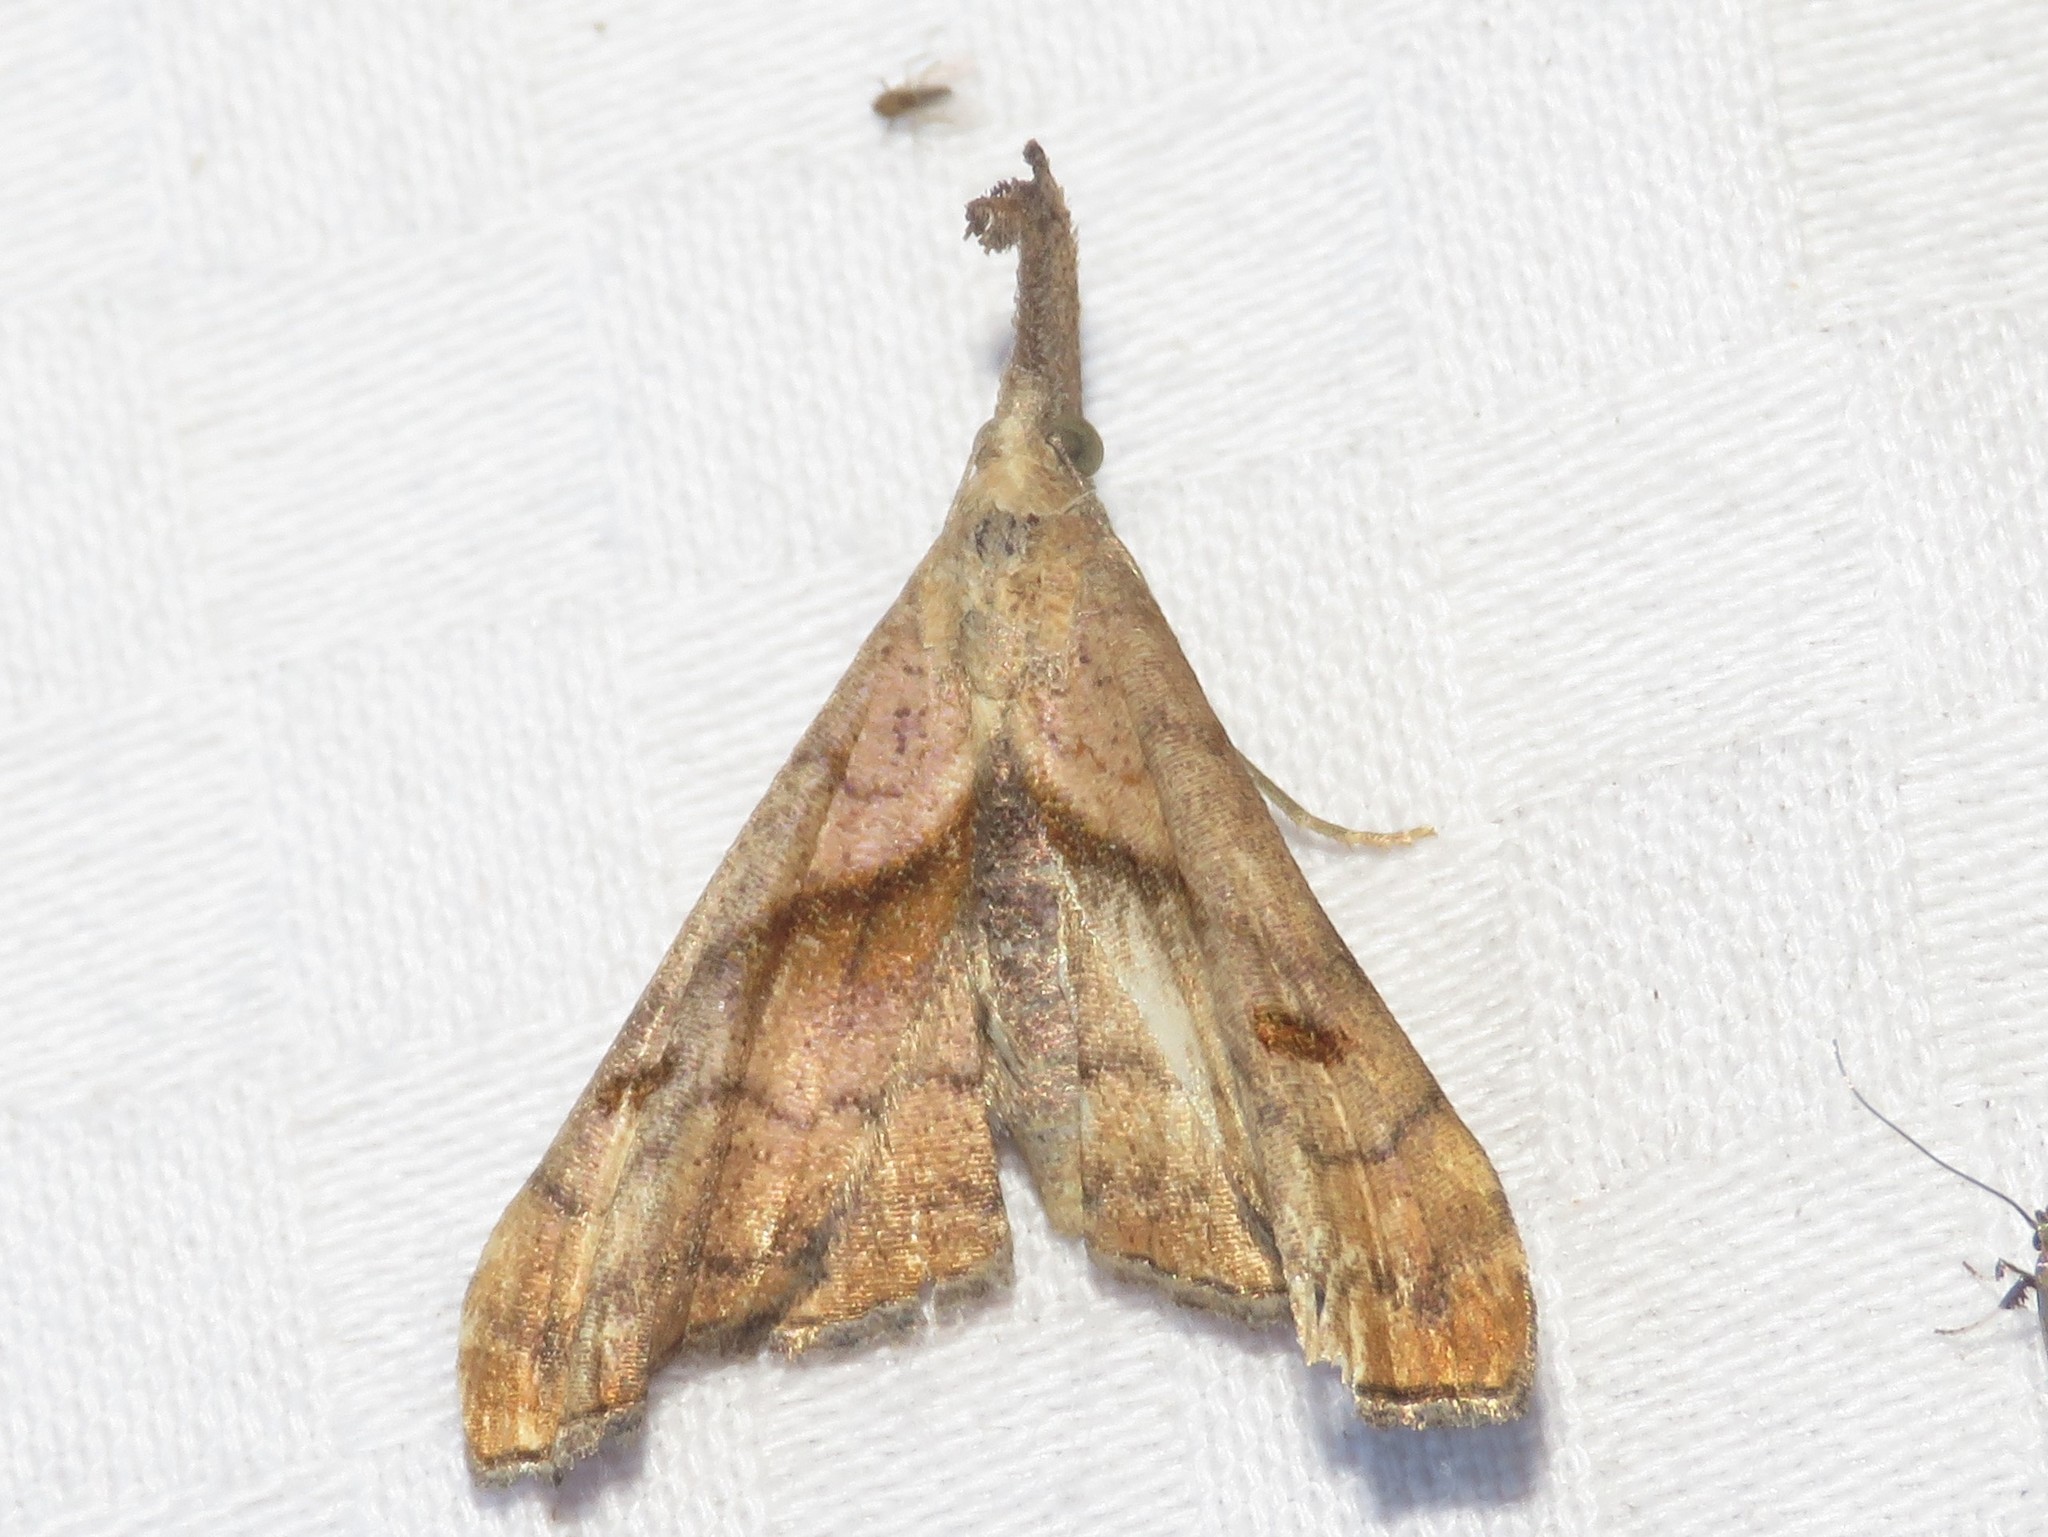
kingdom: Animalia
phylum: Arthropoda
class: Insecta
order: Lepidoptera
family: Erebidae
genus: Palthis
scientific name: Palthis angulalis
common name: Dark-spotted palthis moth
